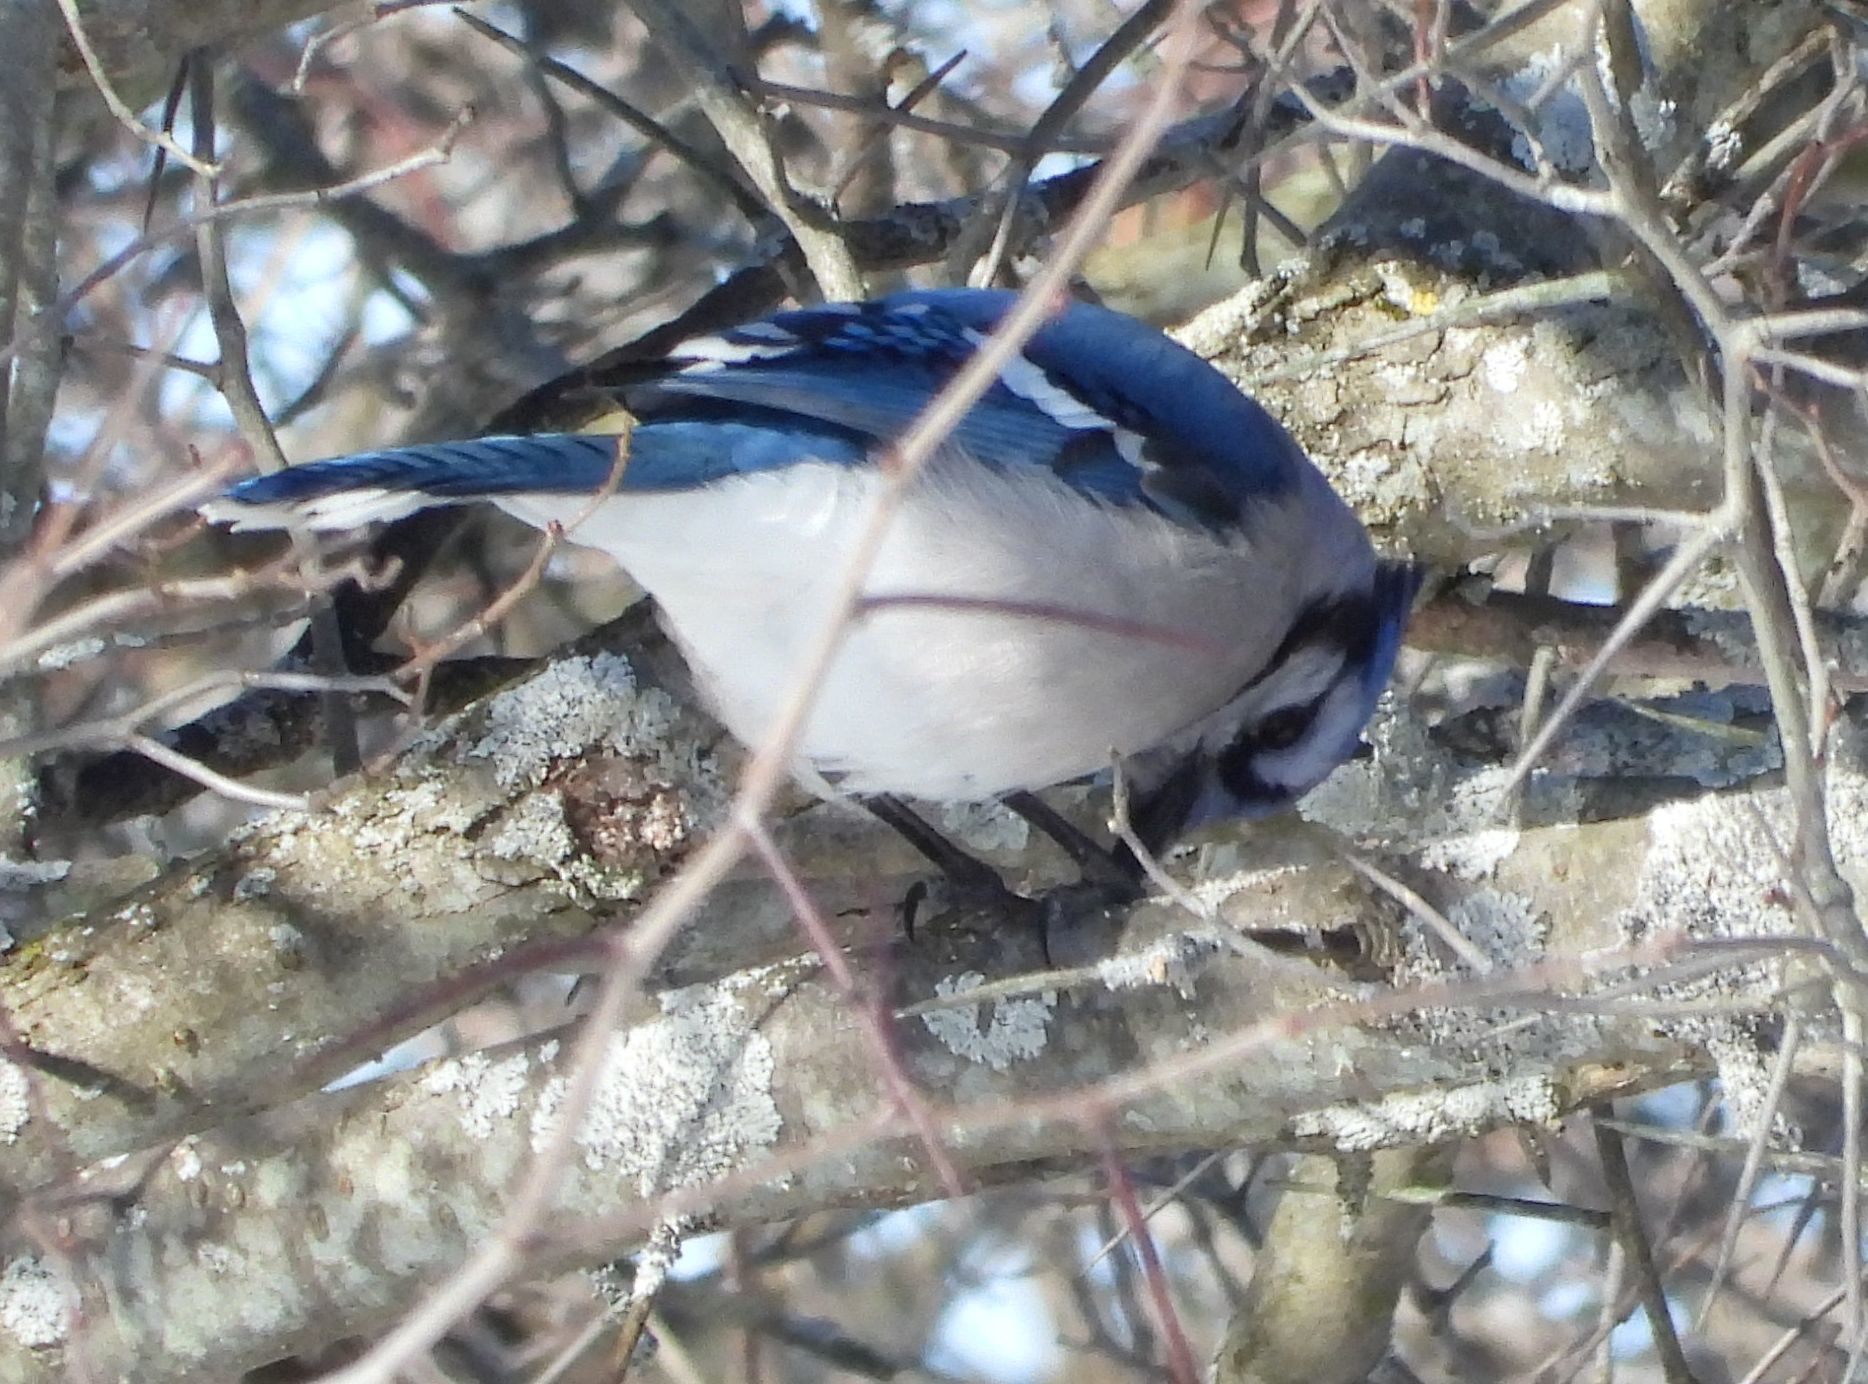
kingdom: Animalia
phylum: Chordata
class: Aves
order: Passeriformes
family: Corvidae
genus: Cyanocitta
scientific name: Cyanocitta cristata
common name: Blue jay
